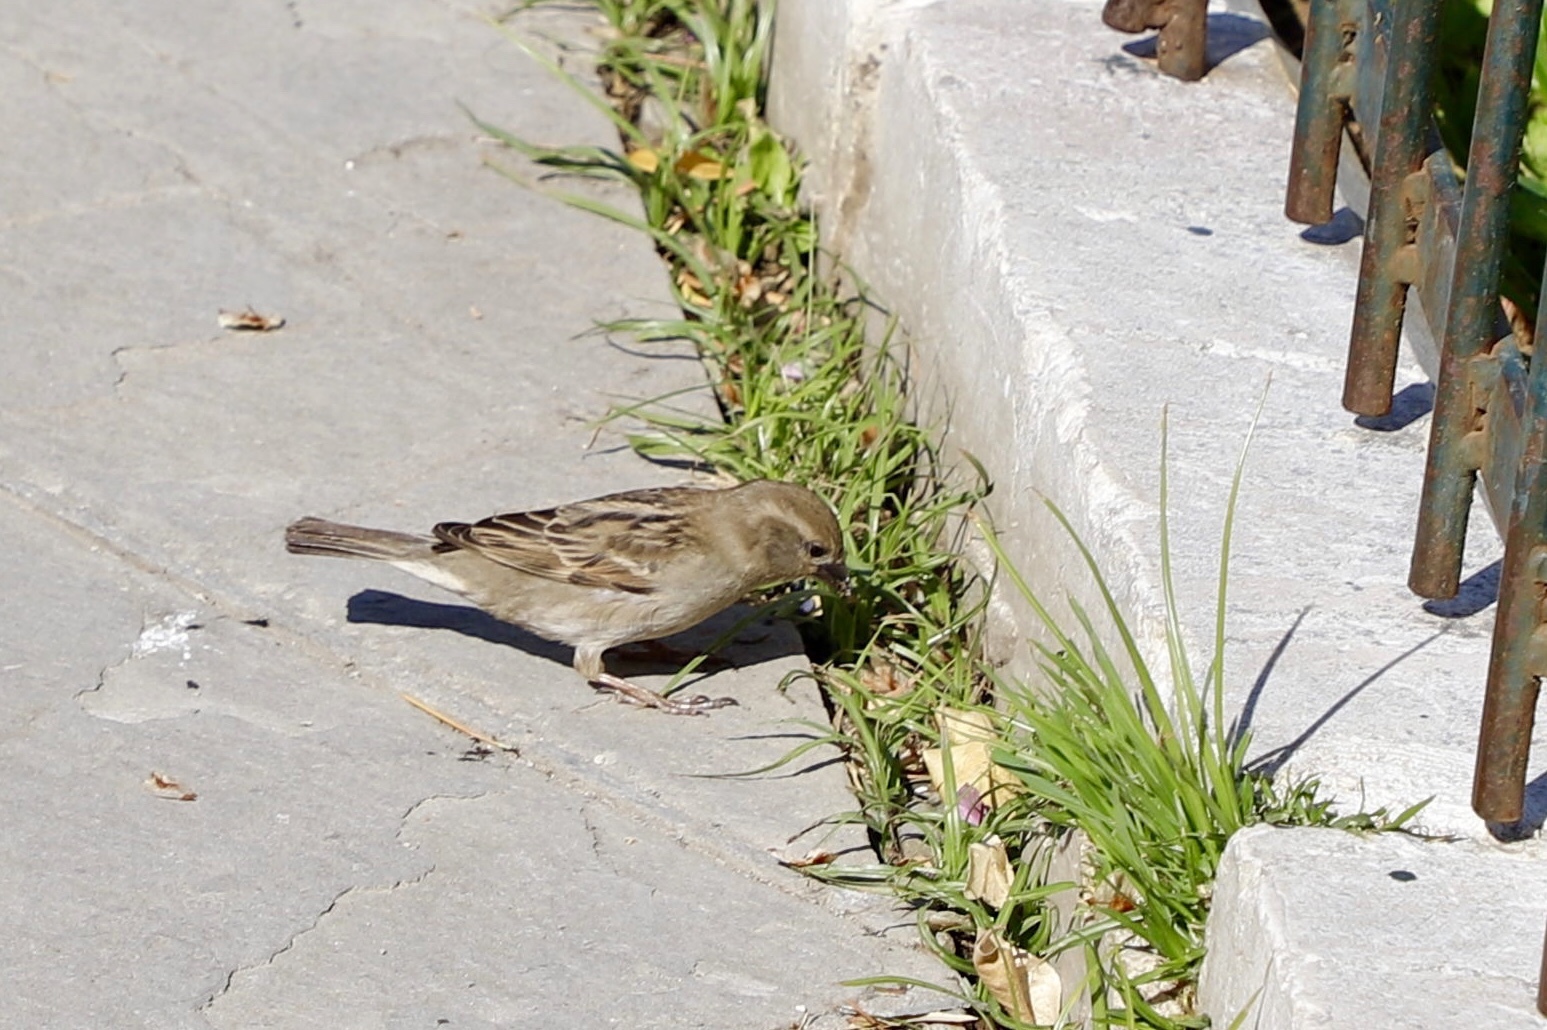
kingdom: Animalia
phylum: Chordata
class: Aves
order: Passeriformes
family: Passeridae
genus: Passer
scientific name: Passer domesticus
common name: House sparrow
